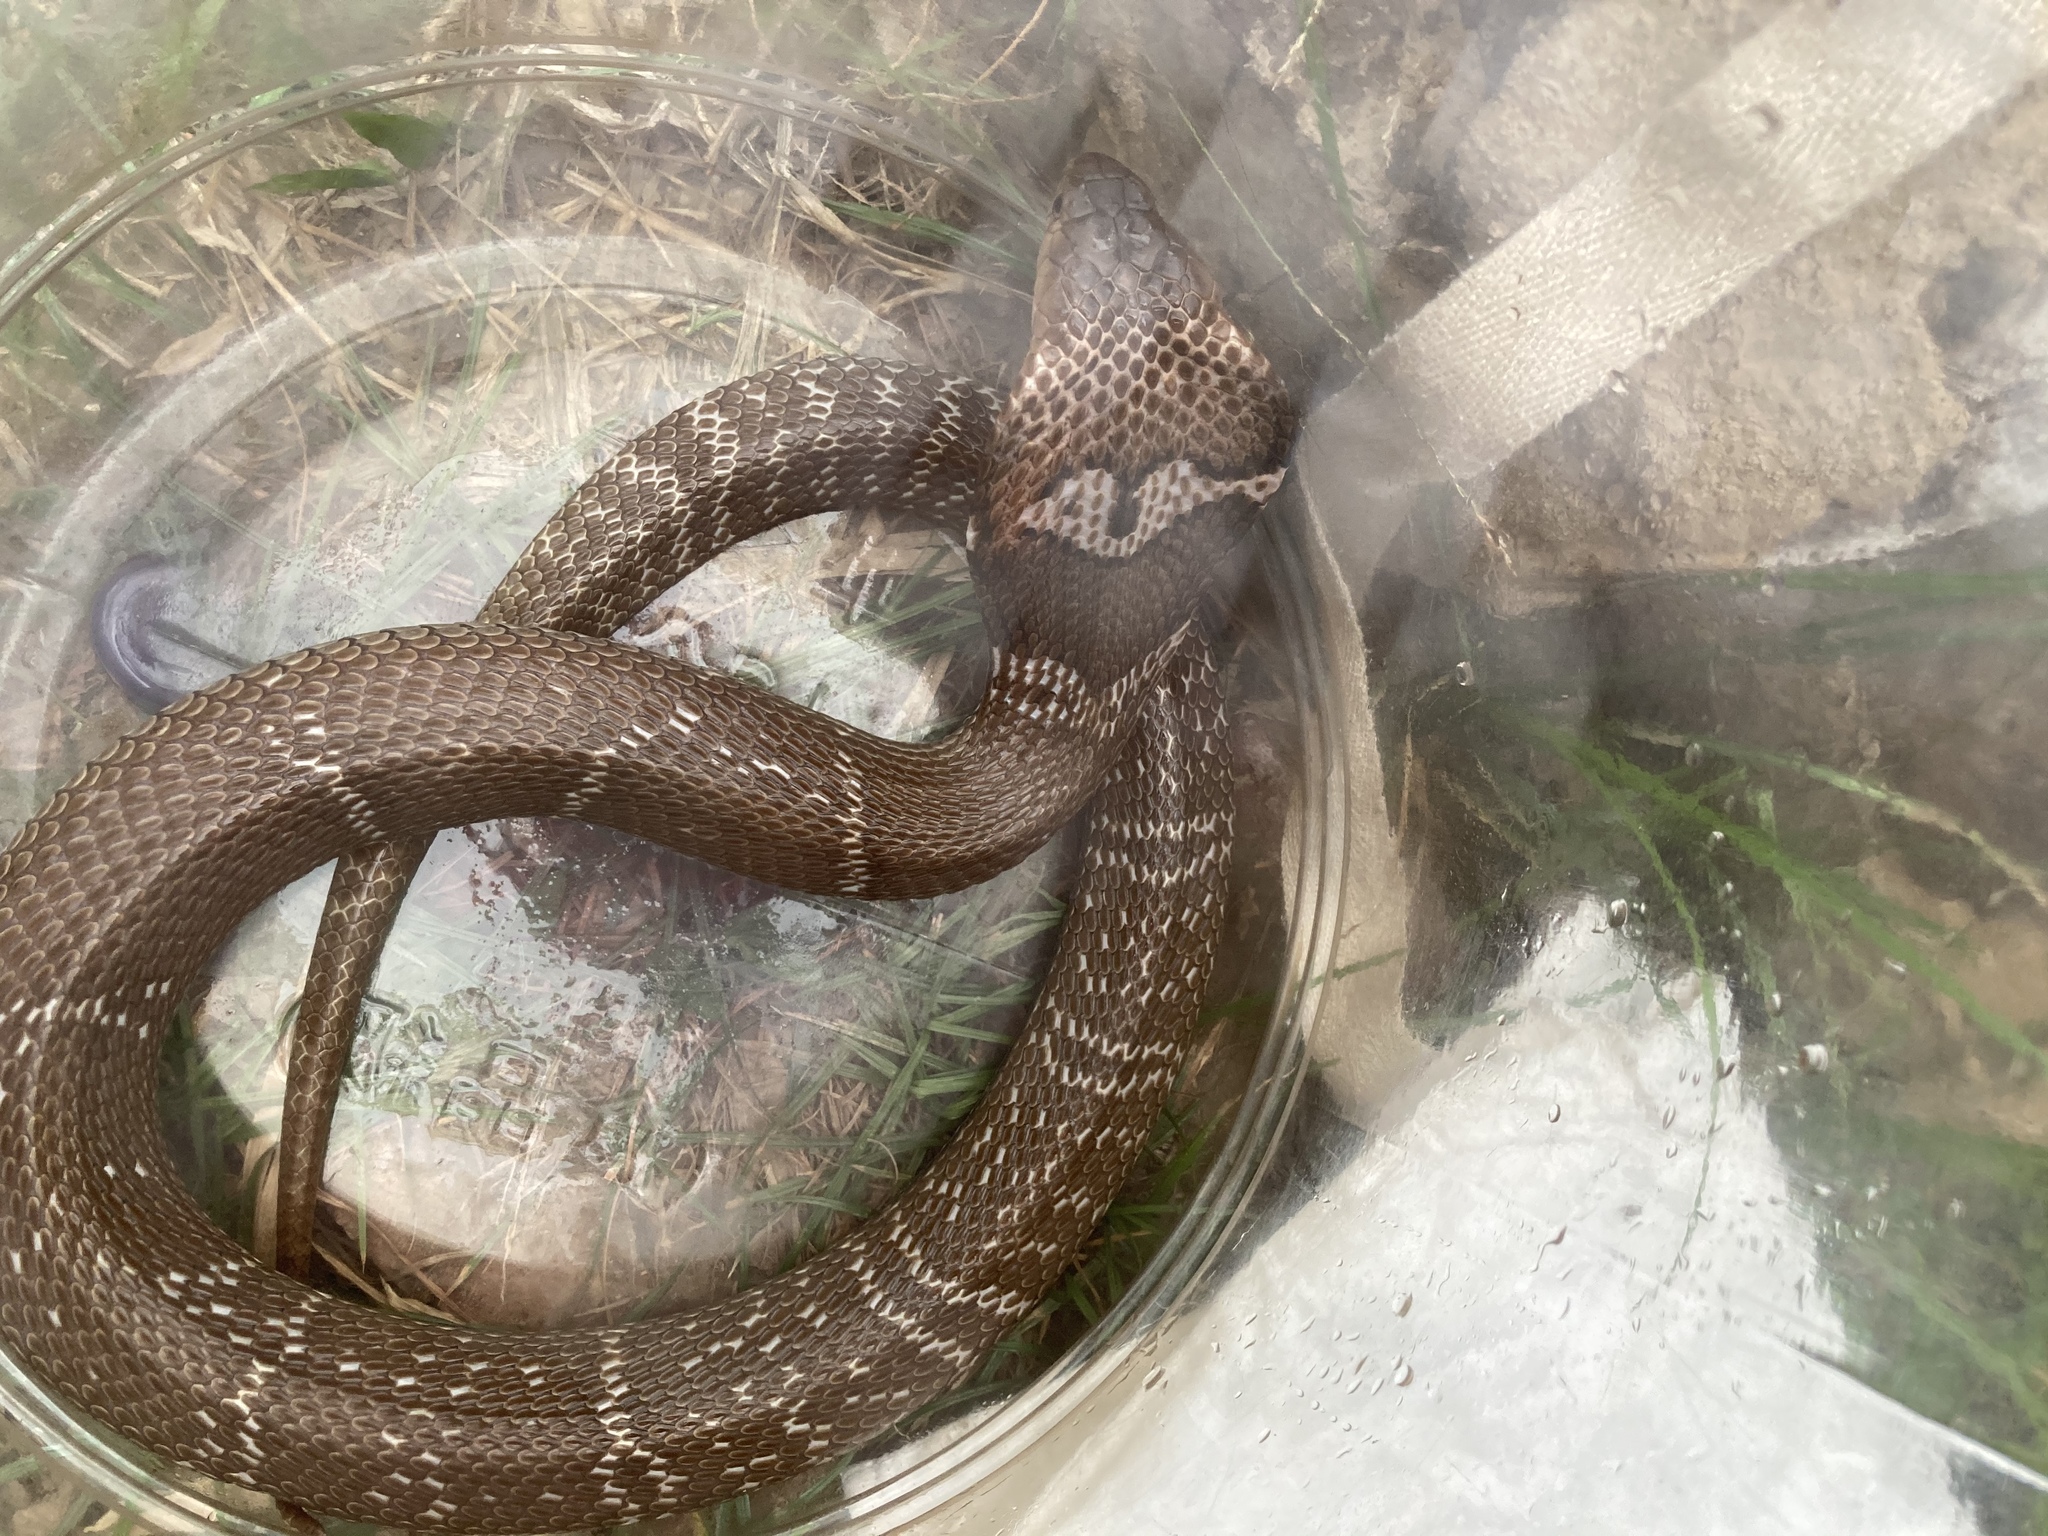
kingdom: Animalia
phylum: Chordata
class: Squamata
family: Elapidae
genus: Naja
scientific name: Naja atra
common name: Chinese cobra
